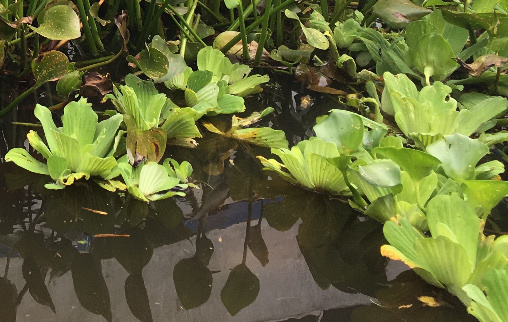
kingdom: Plantae
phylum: Tracheophyta
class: Liliopsida
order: Alismatales
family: Araceae
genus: Pistia
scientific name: Pistia stratiotes
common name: Water lettuce
